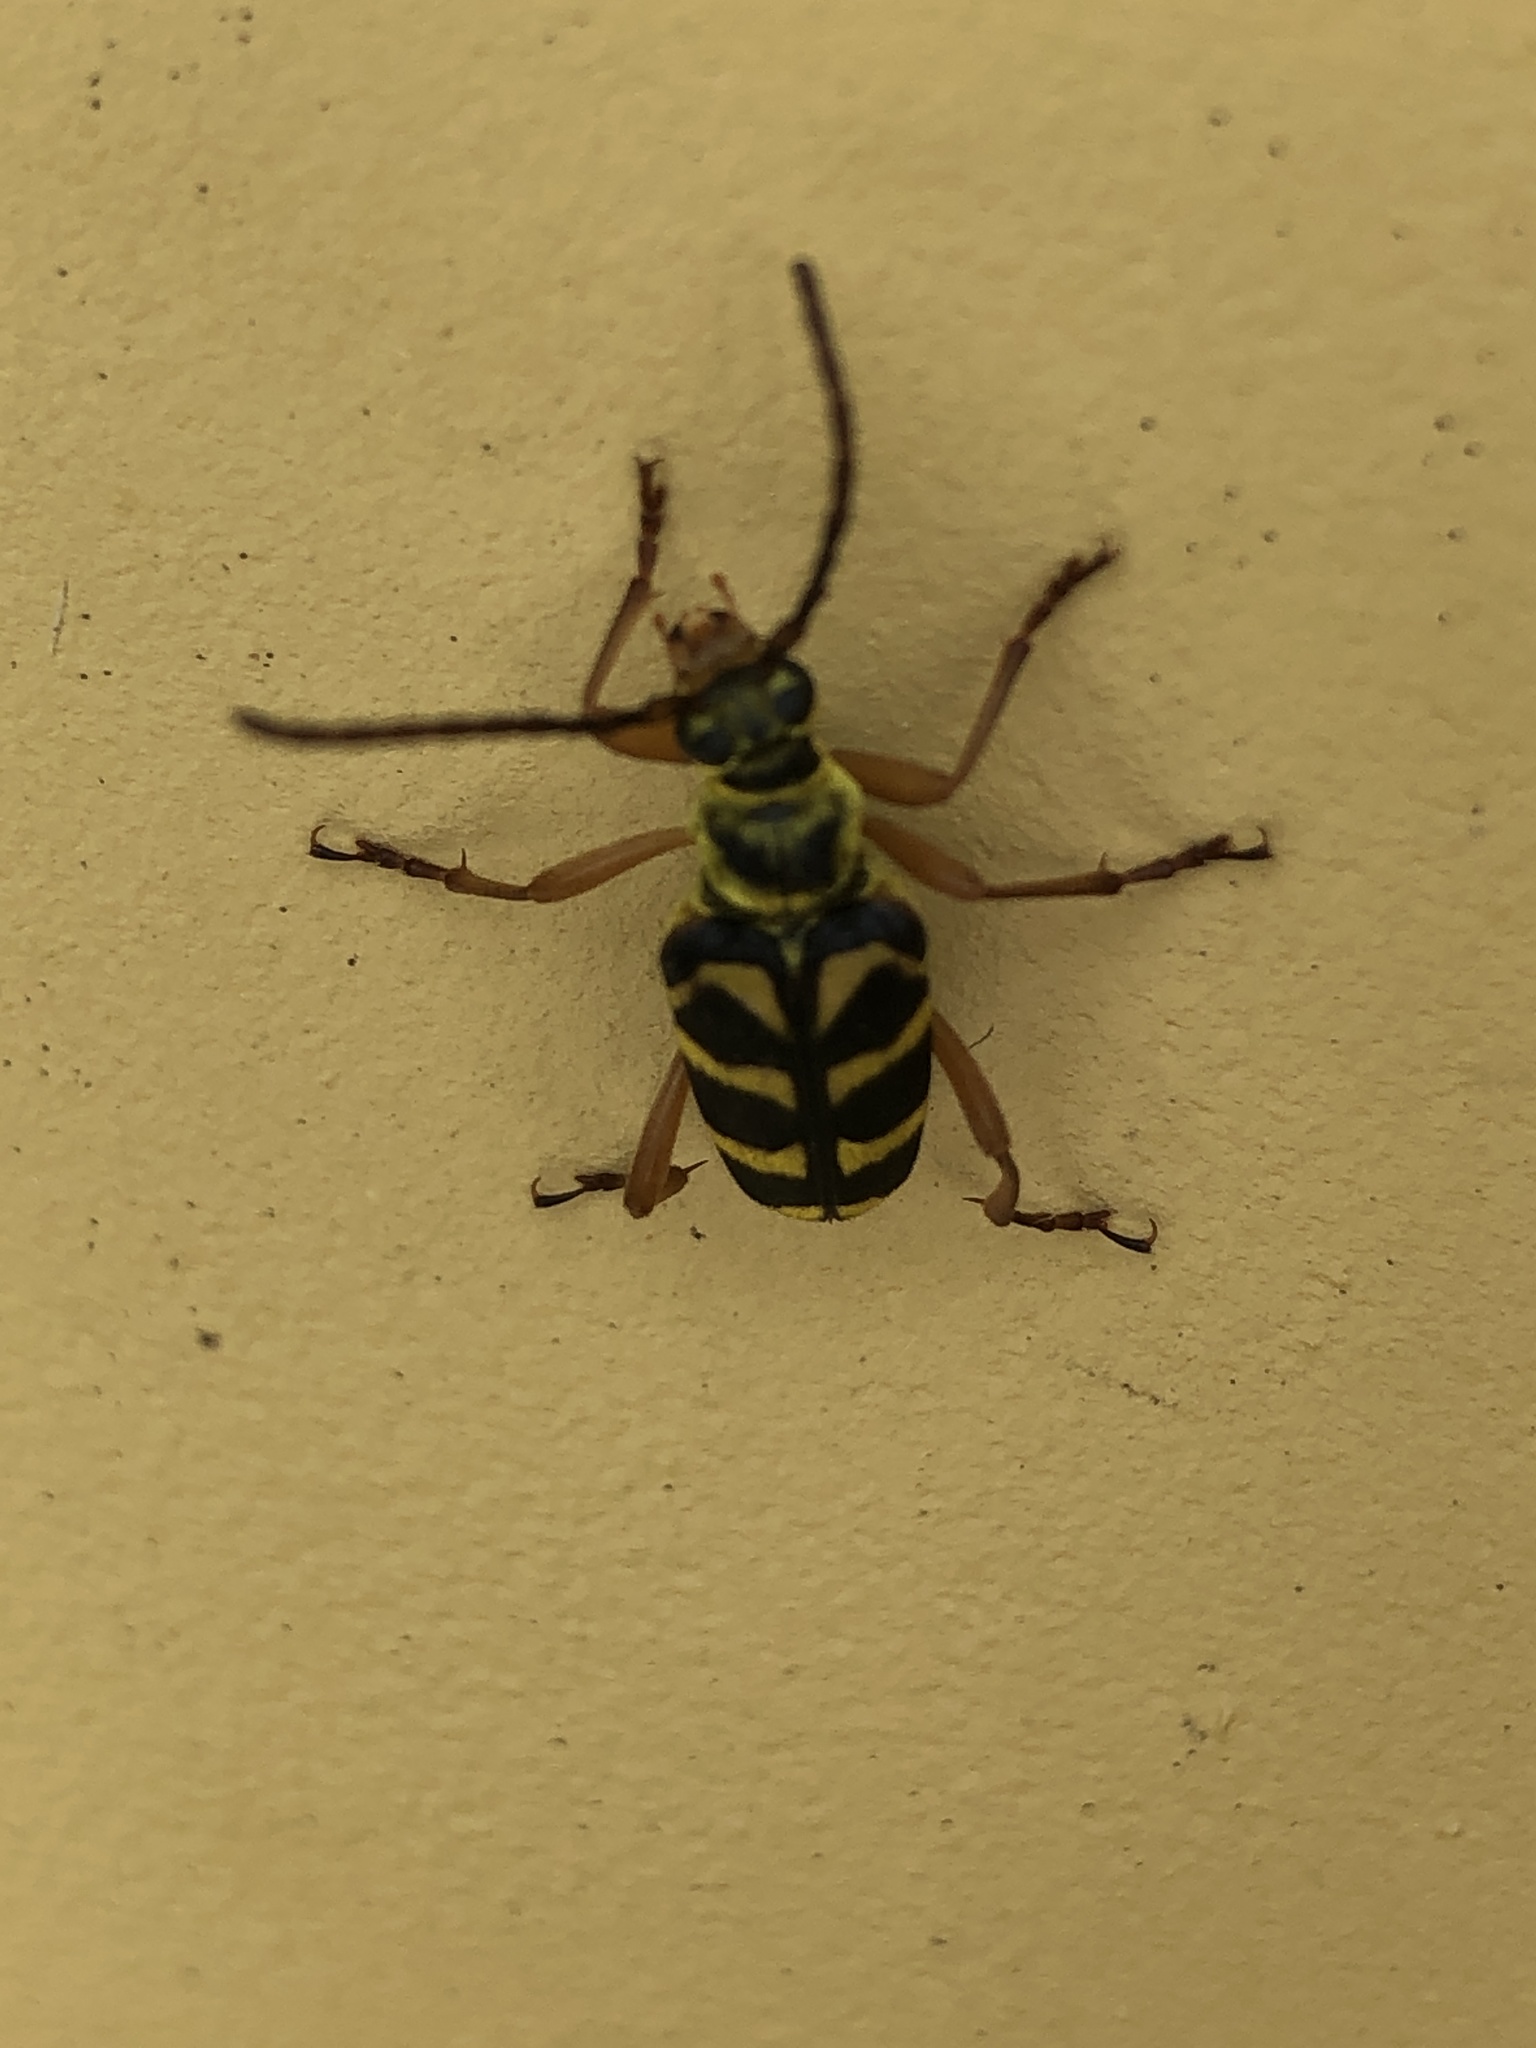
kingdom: Animalia
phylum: Arthropoda
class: Insecta
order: Coleoptera
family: Cerambycidae
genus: Strophiona
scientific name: Strophiona nitens
